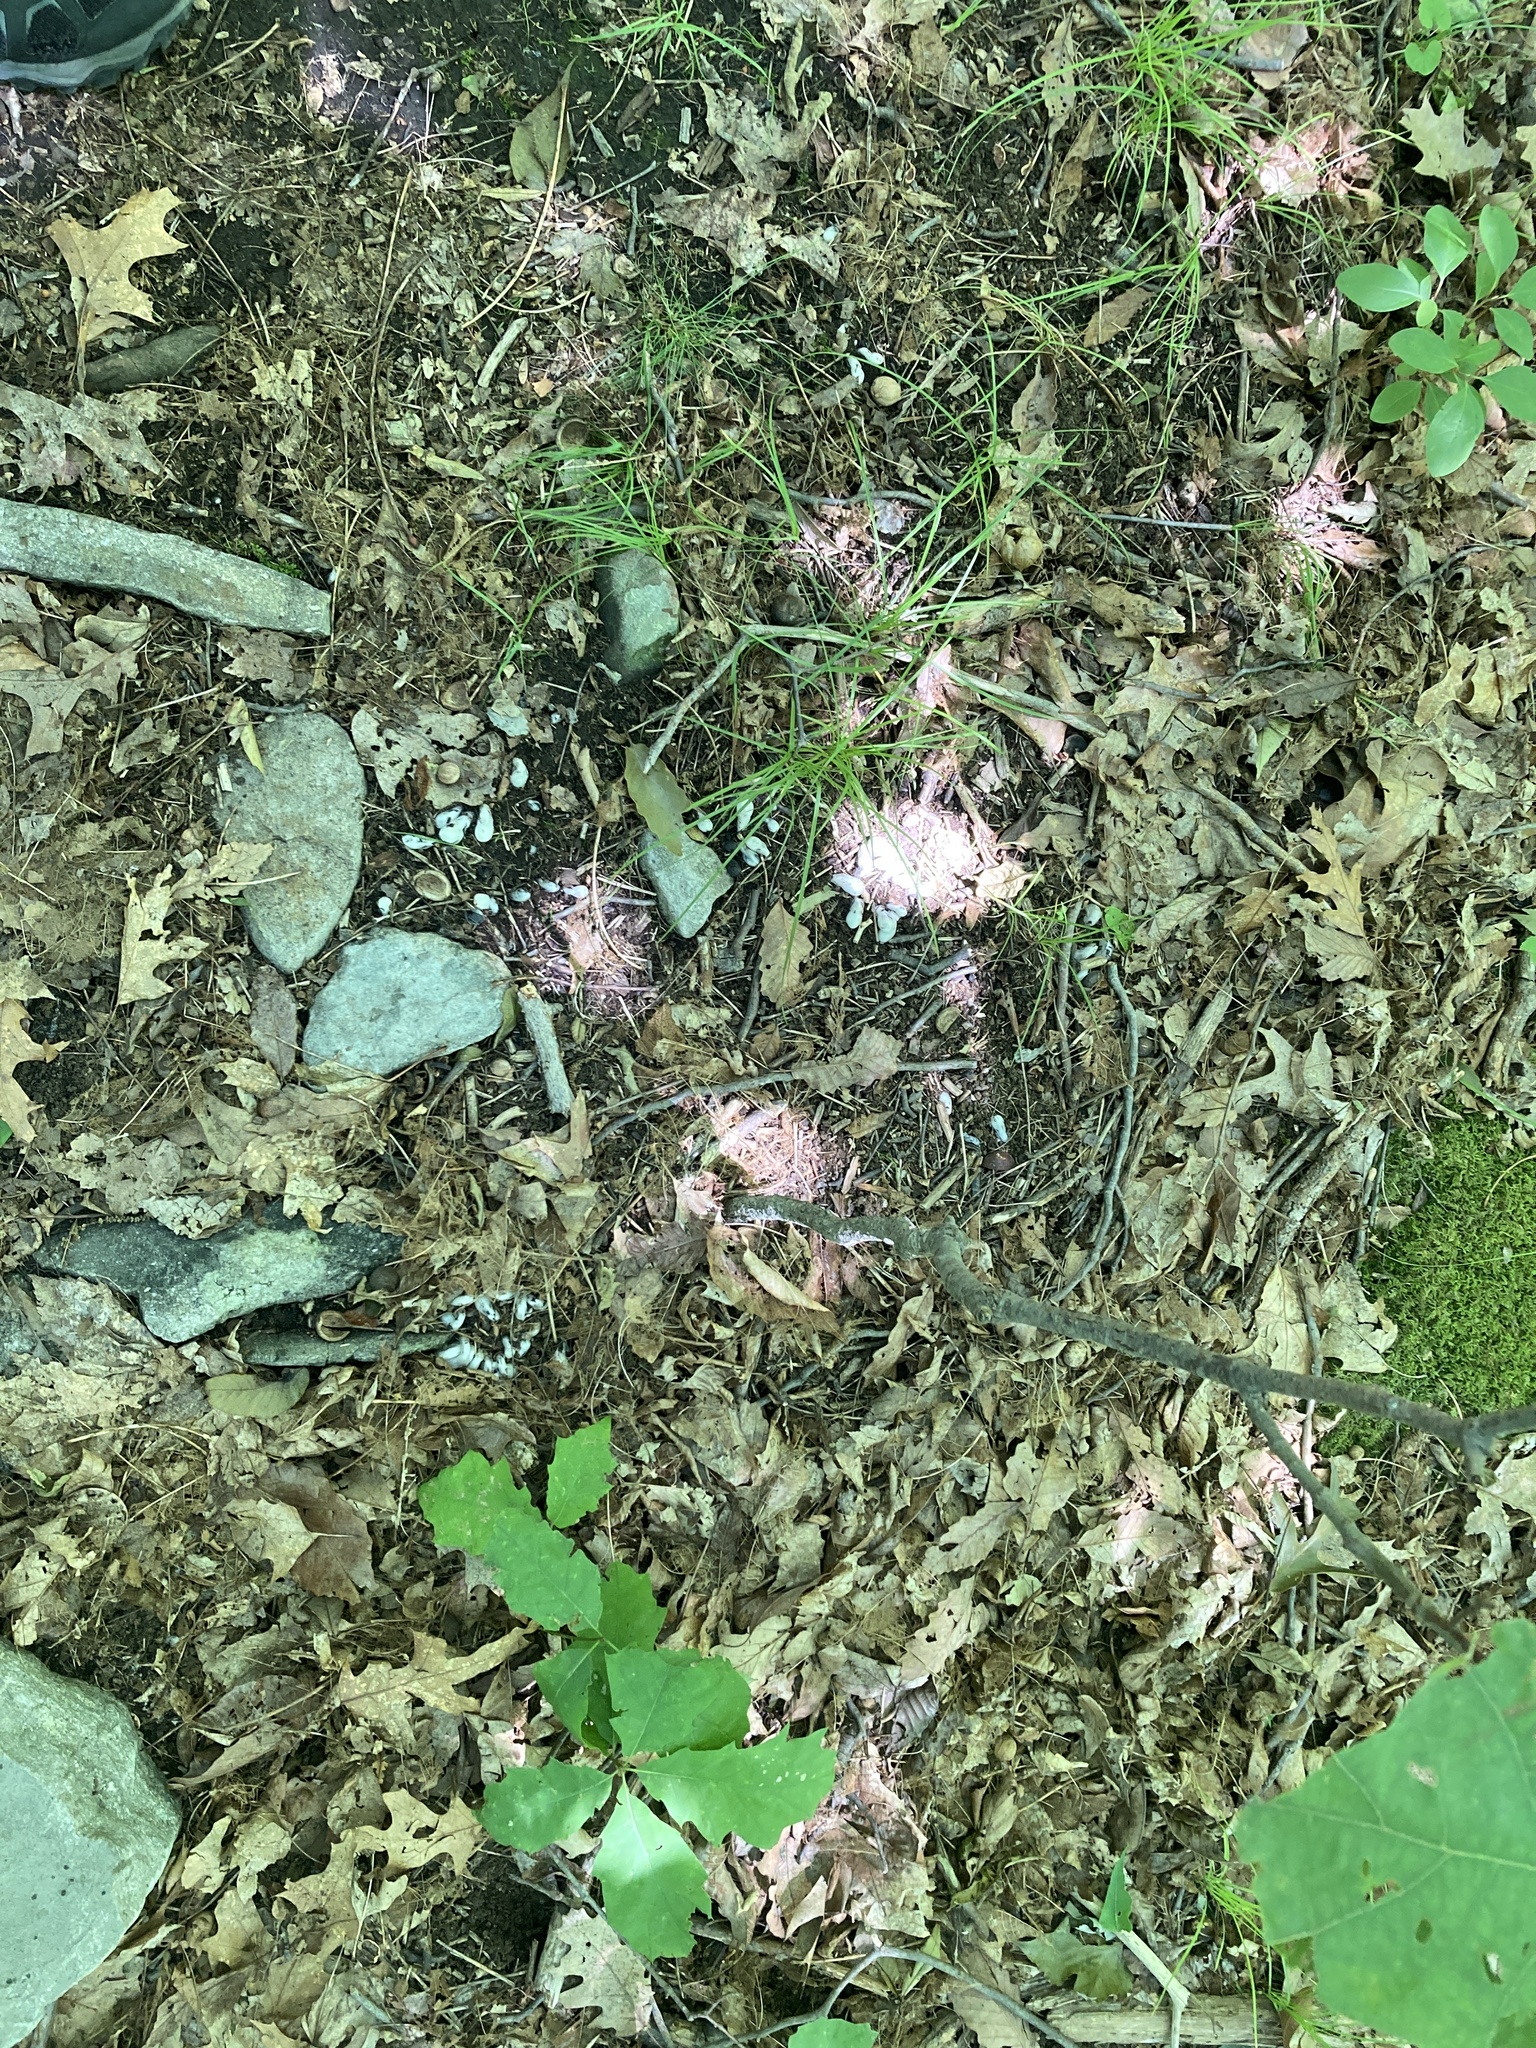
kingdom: Plantae
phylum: Tracheophyta
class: Magnoliopsida
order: Ericales
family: Ericaceae
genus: Monotropa
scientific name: Monotropa uniflora
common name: Convulsion root
